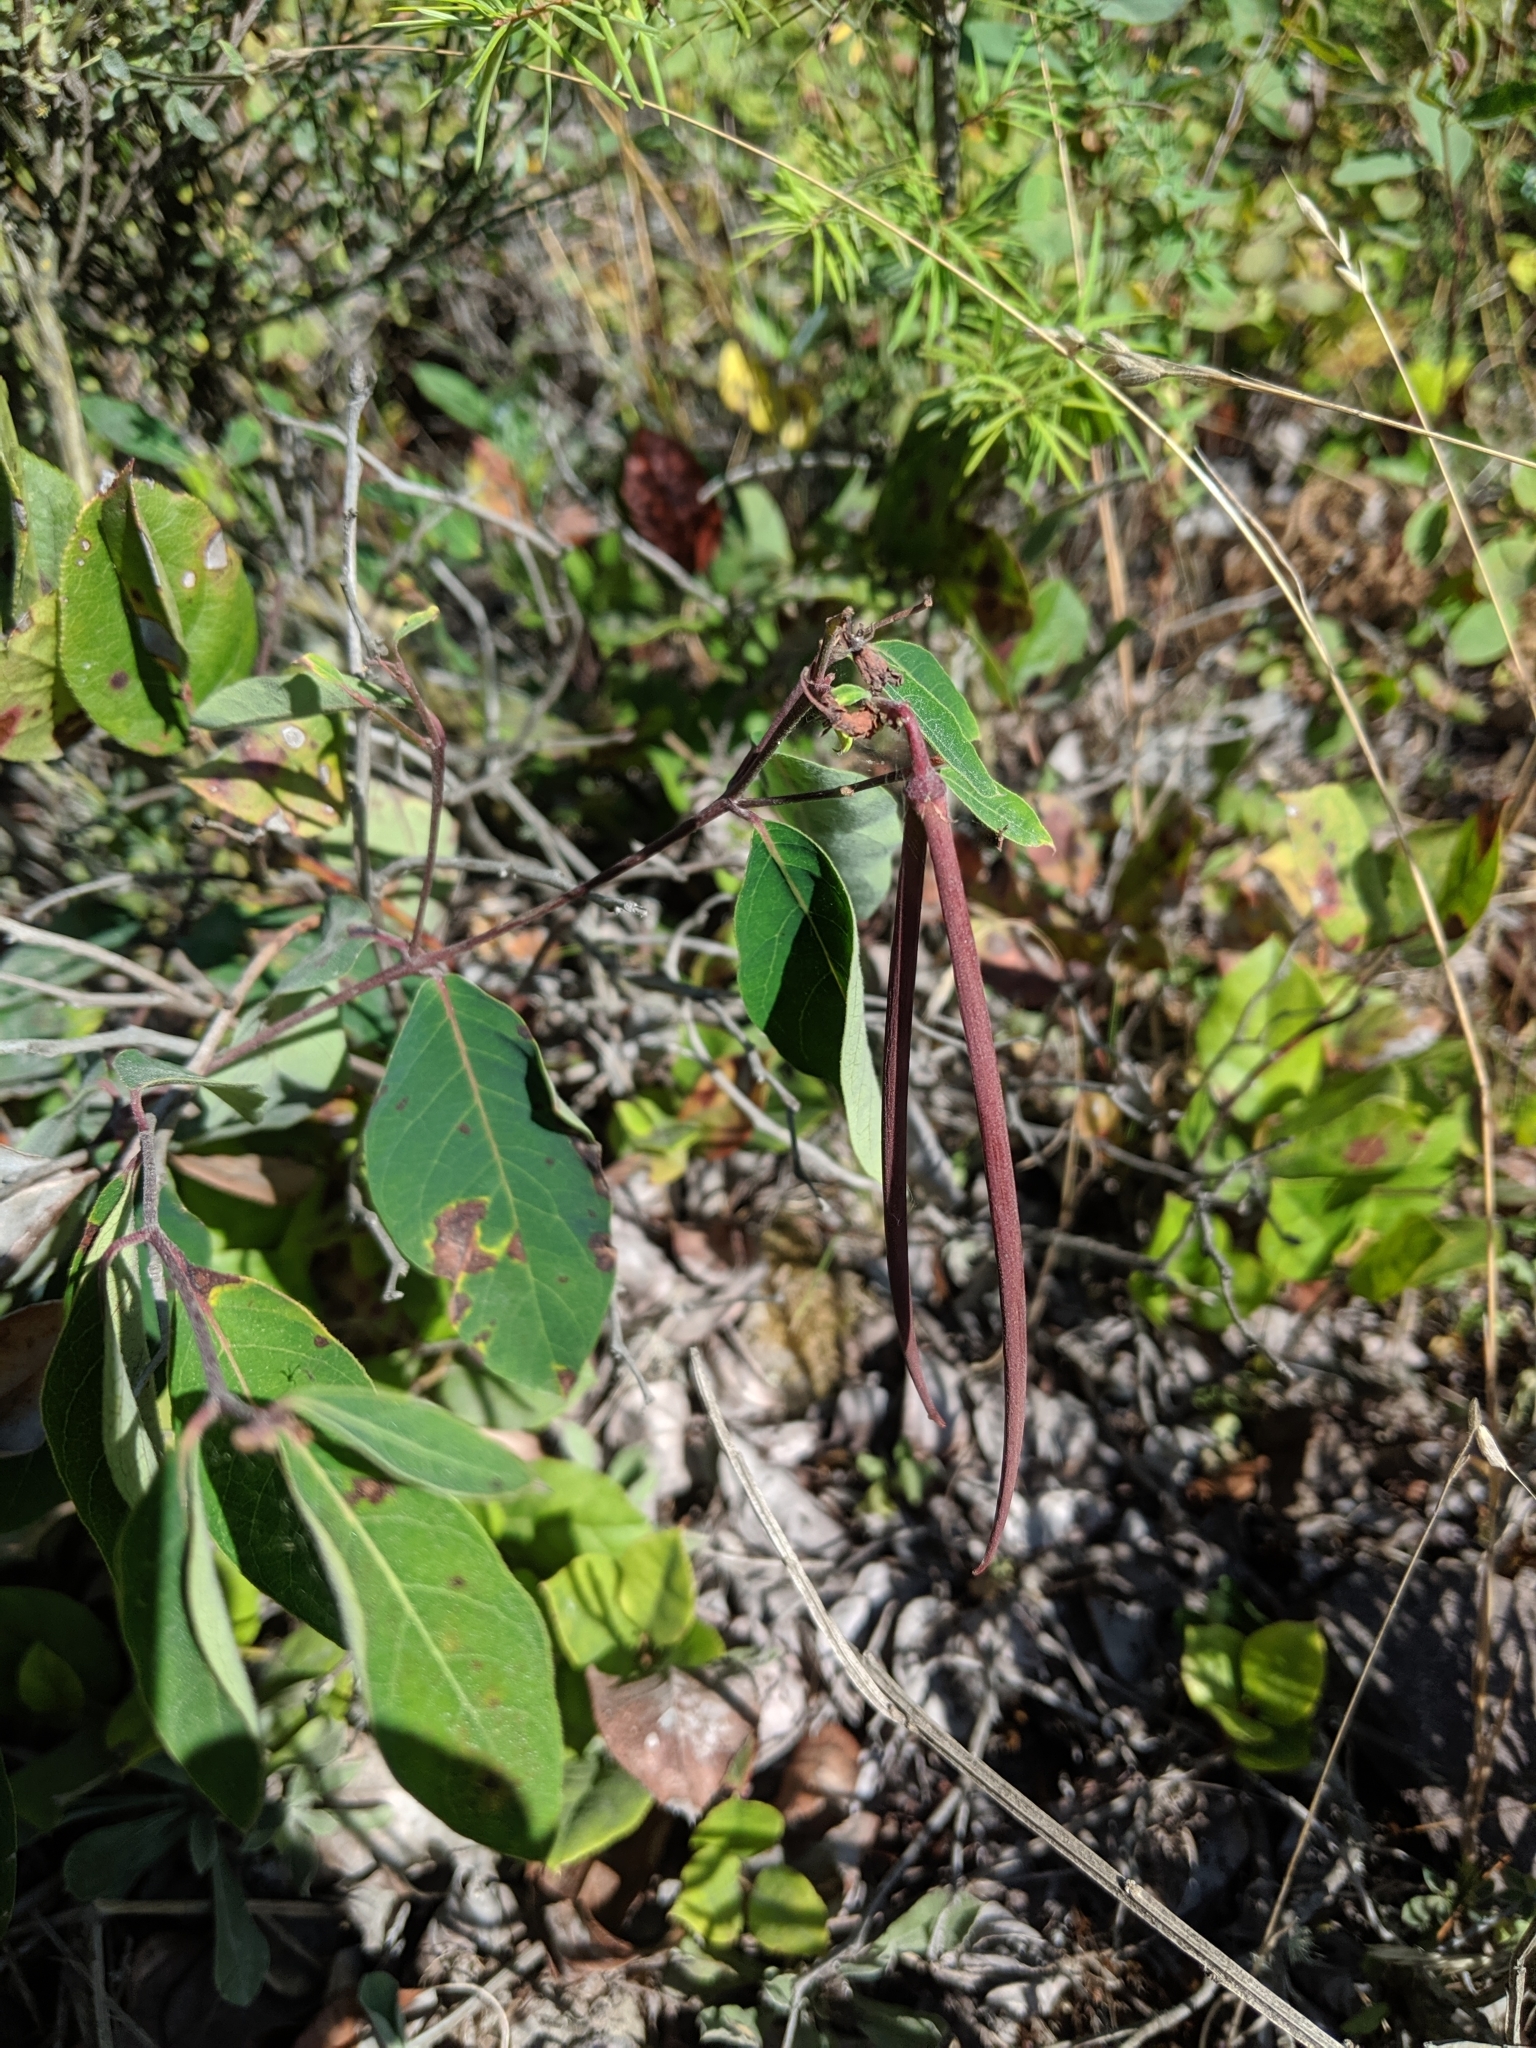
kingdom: Plantae
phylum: Tracheophyta
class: Magnoliopsida
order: Gentianales
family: Apocynaceae
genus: Apocynum
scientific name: Apocynum androsaemifolium
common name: Spreading dogbane
